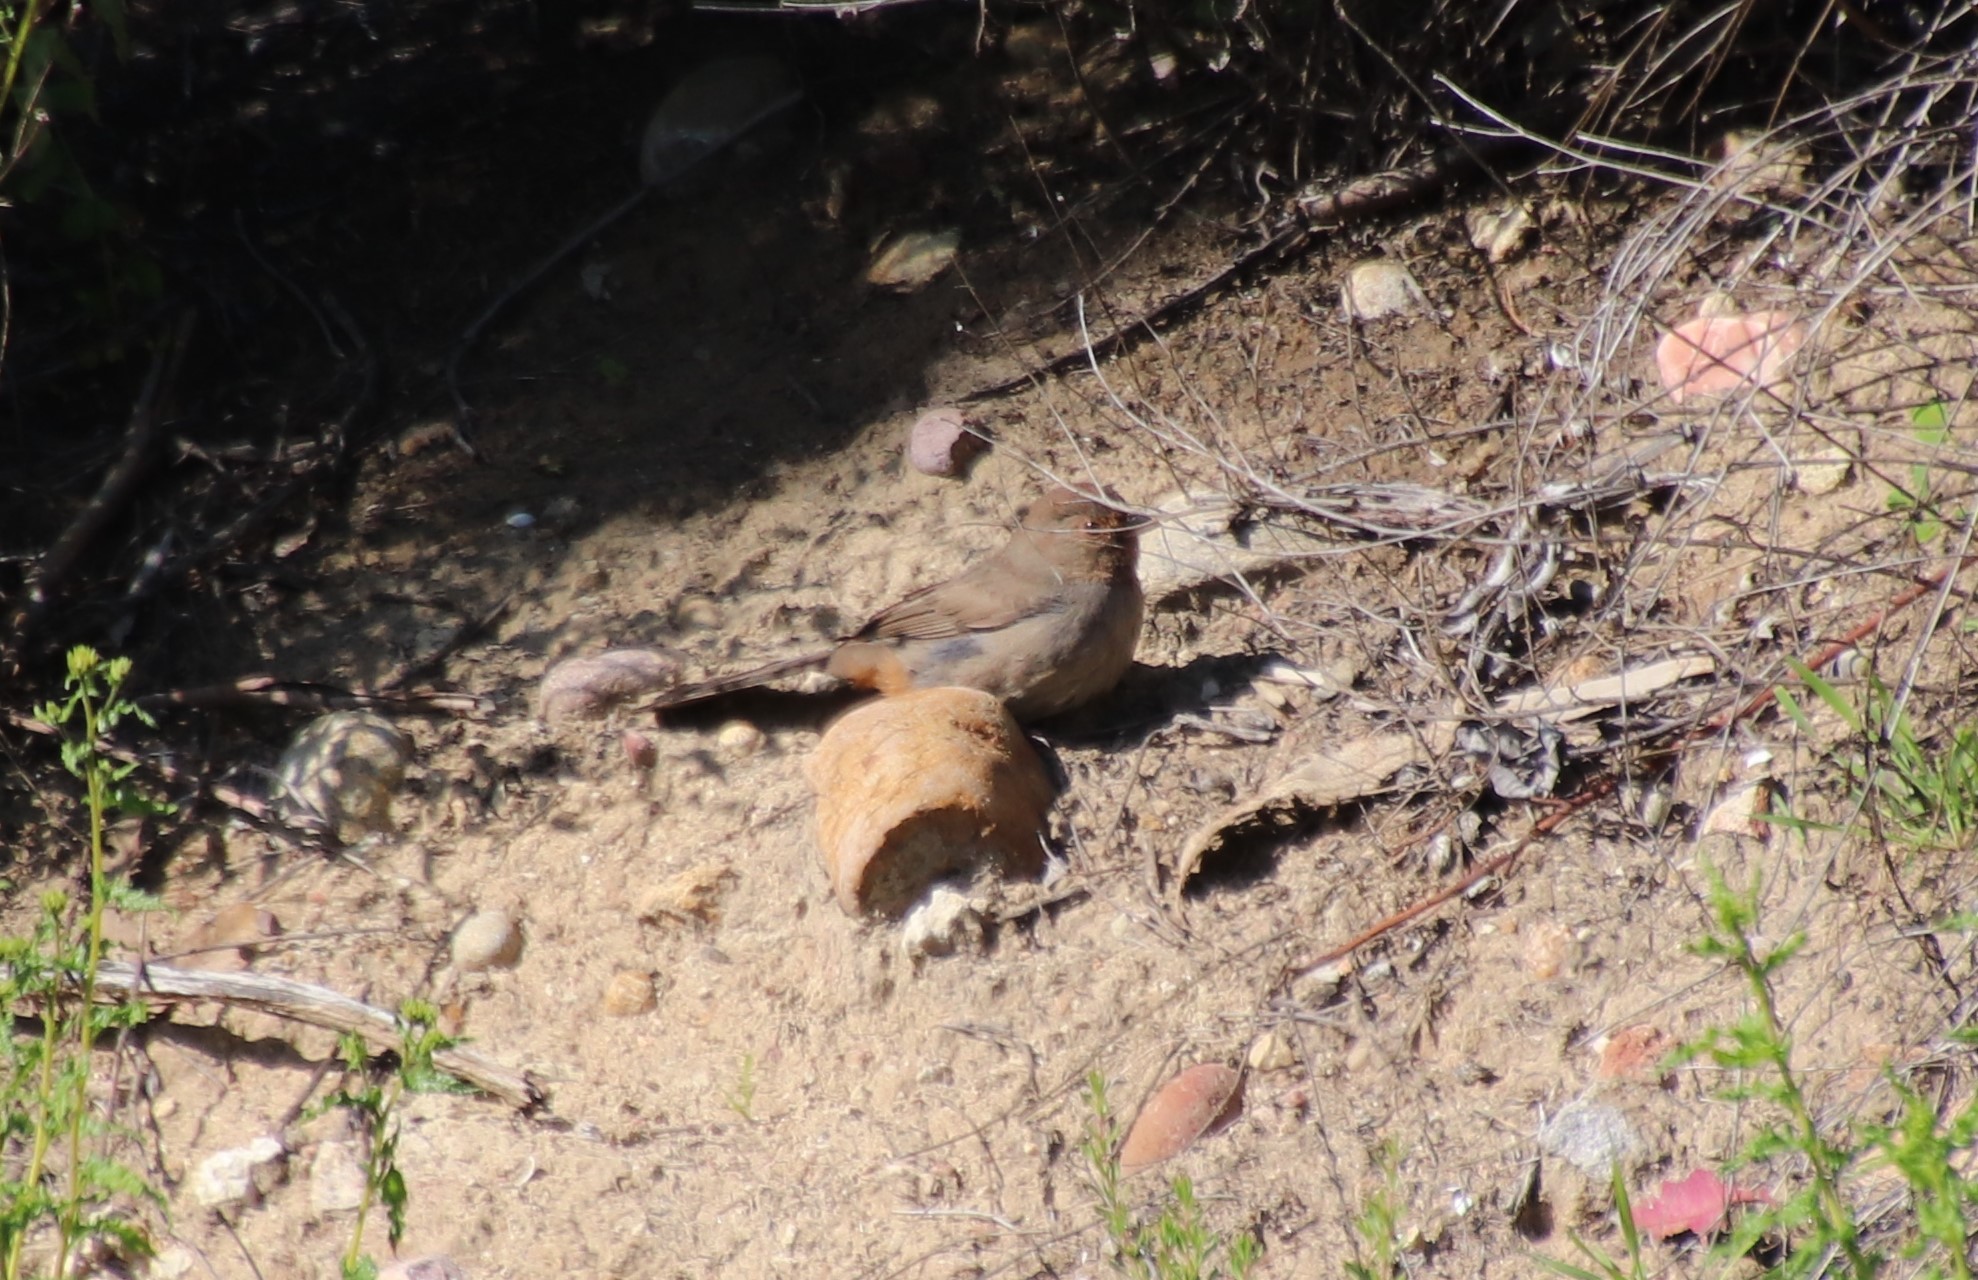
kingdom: Animalia
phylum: Chordata
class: Aves
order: Passeriformes
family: Passerellidae
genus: Melozone
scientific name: Melozone crissalis
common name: California towhee
